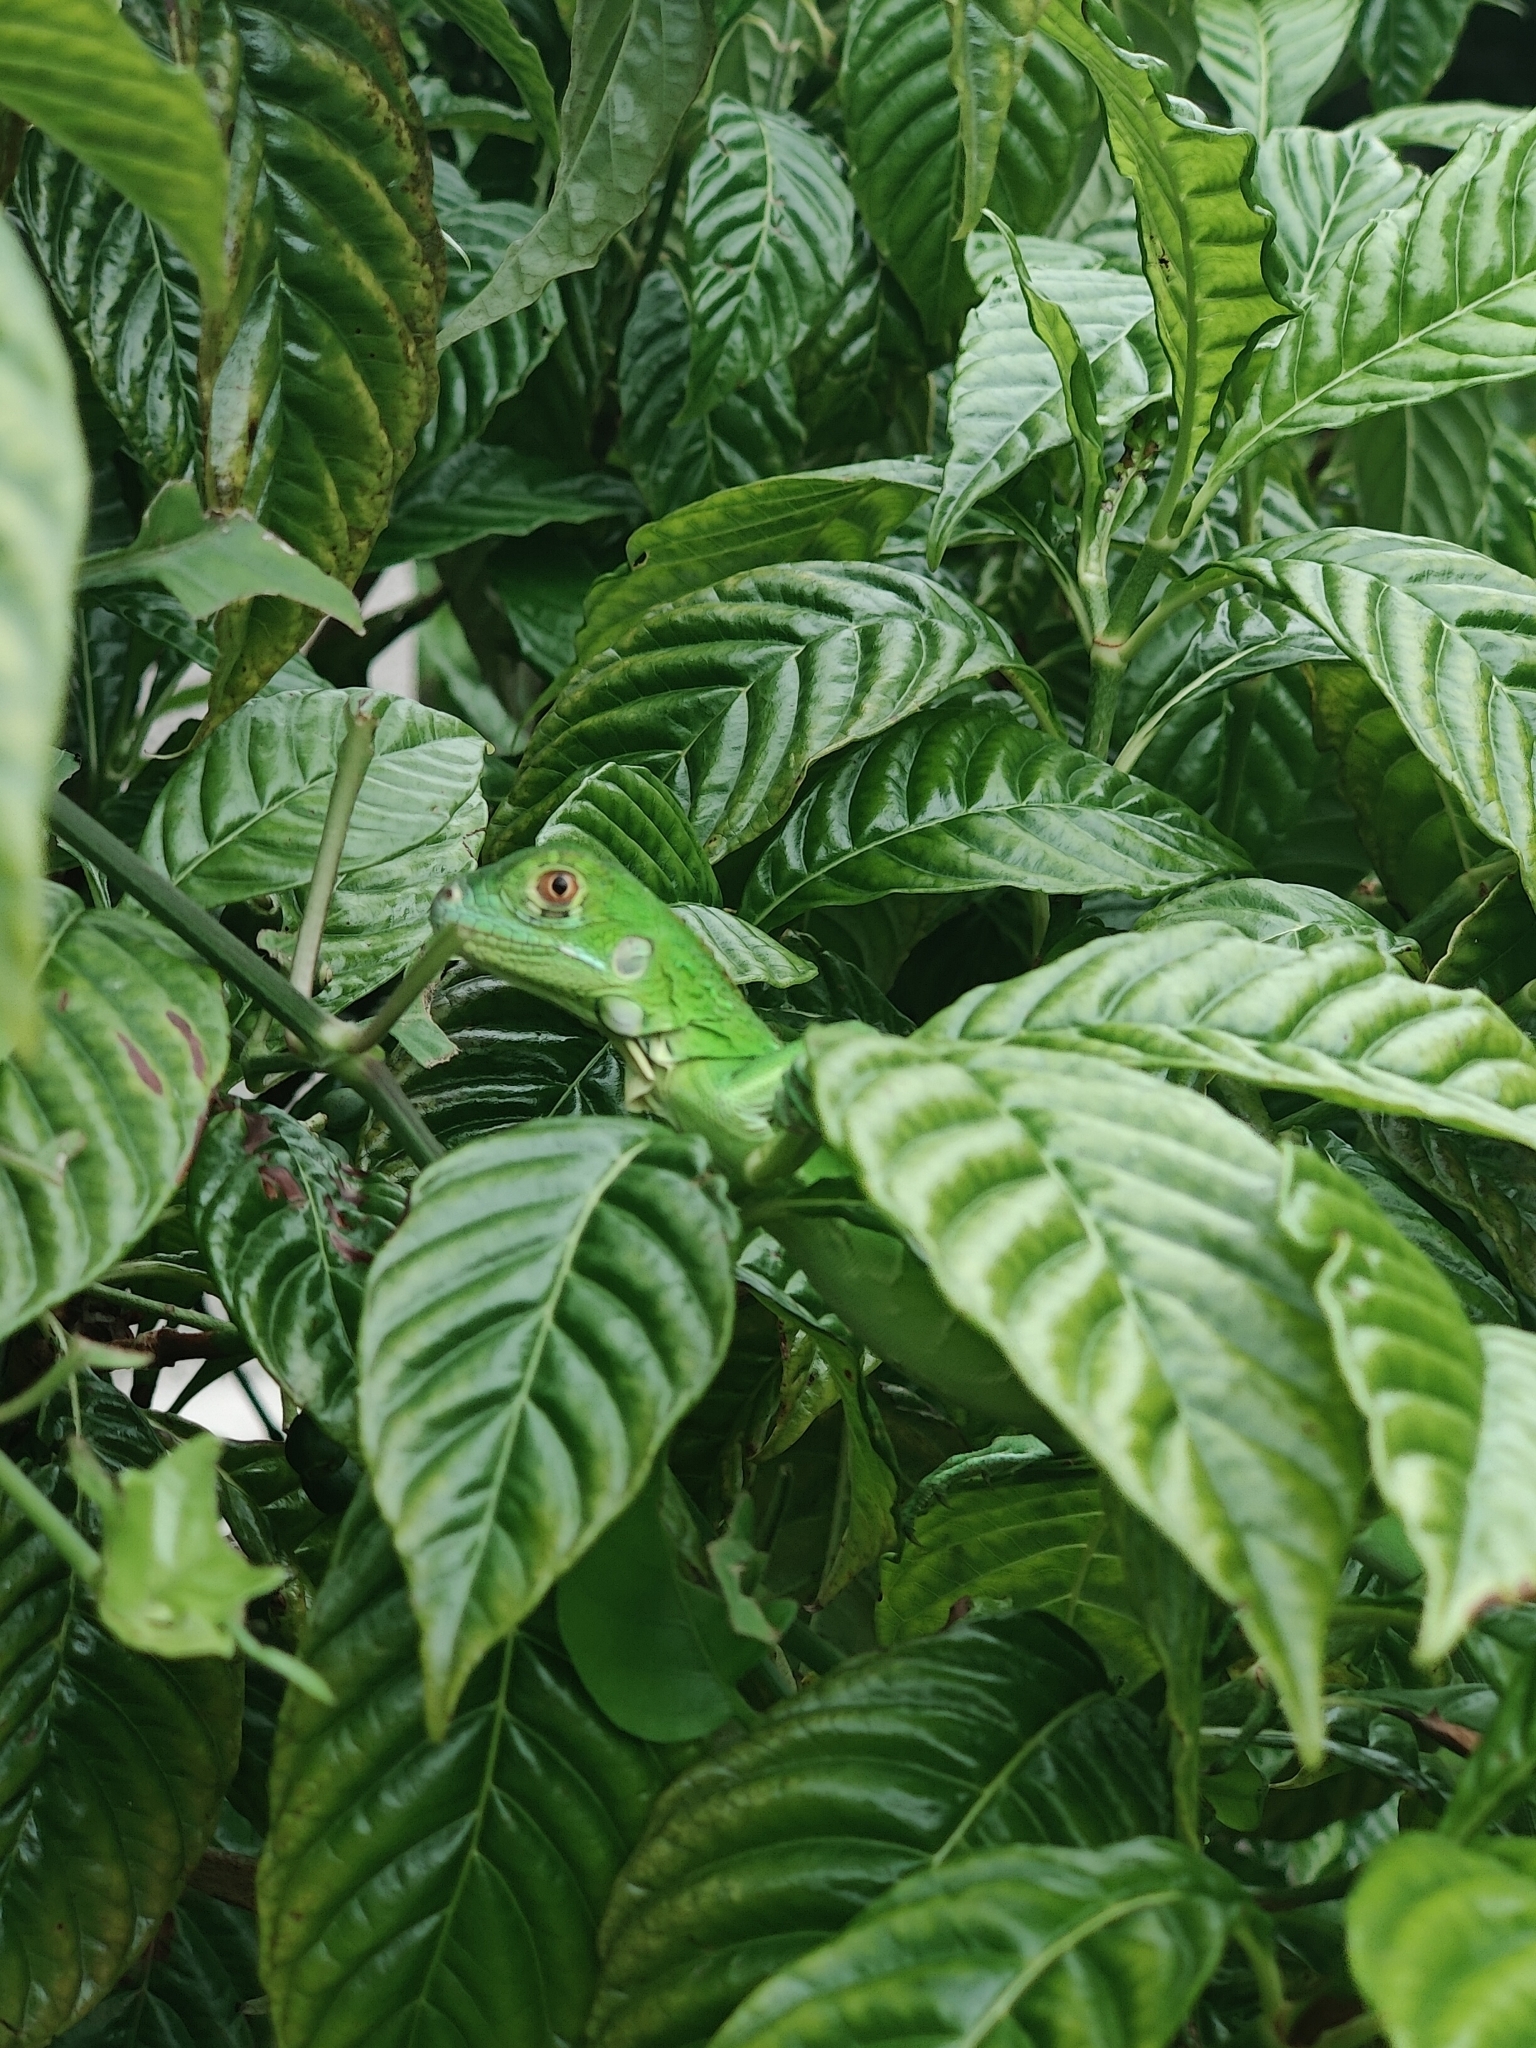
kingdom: Animalia
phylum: Chordata
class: Squamata
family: Iguanidae
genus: Iguana
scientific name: Iguana iguana
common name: Green iguana
